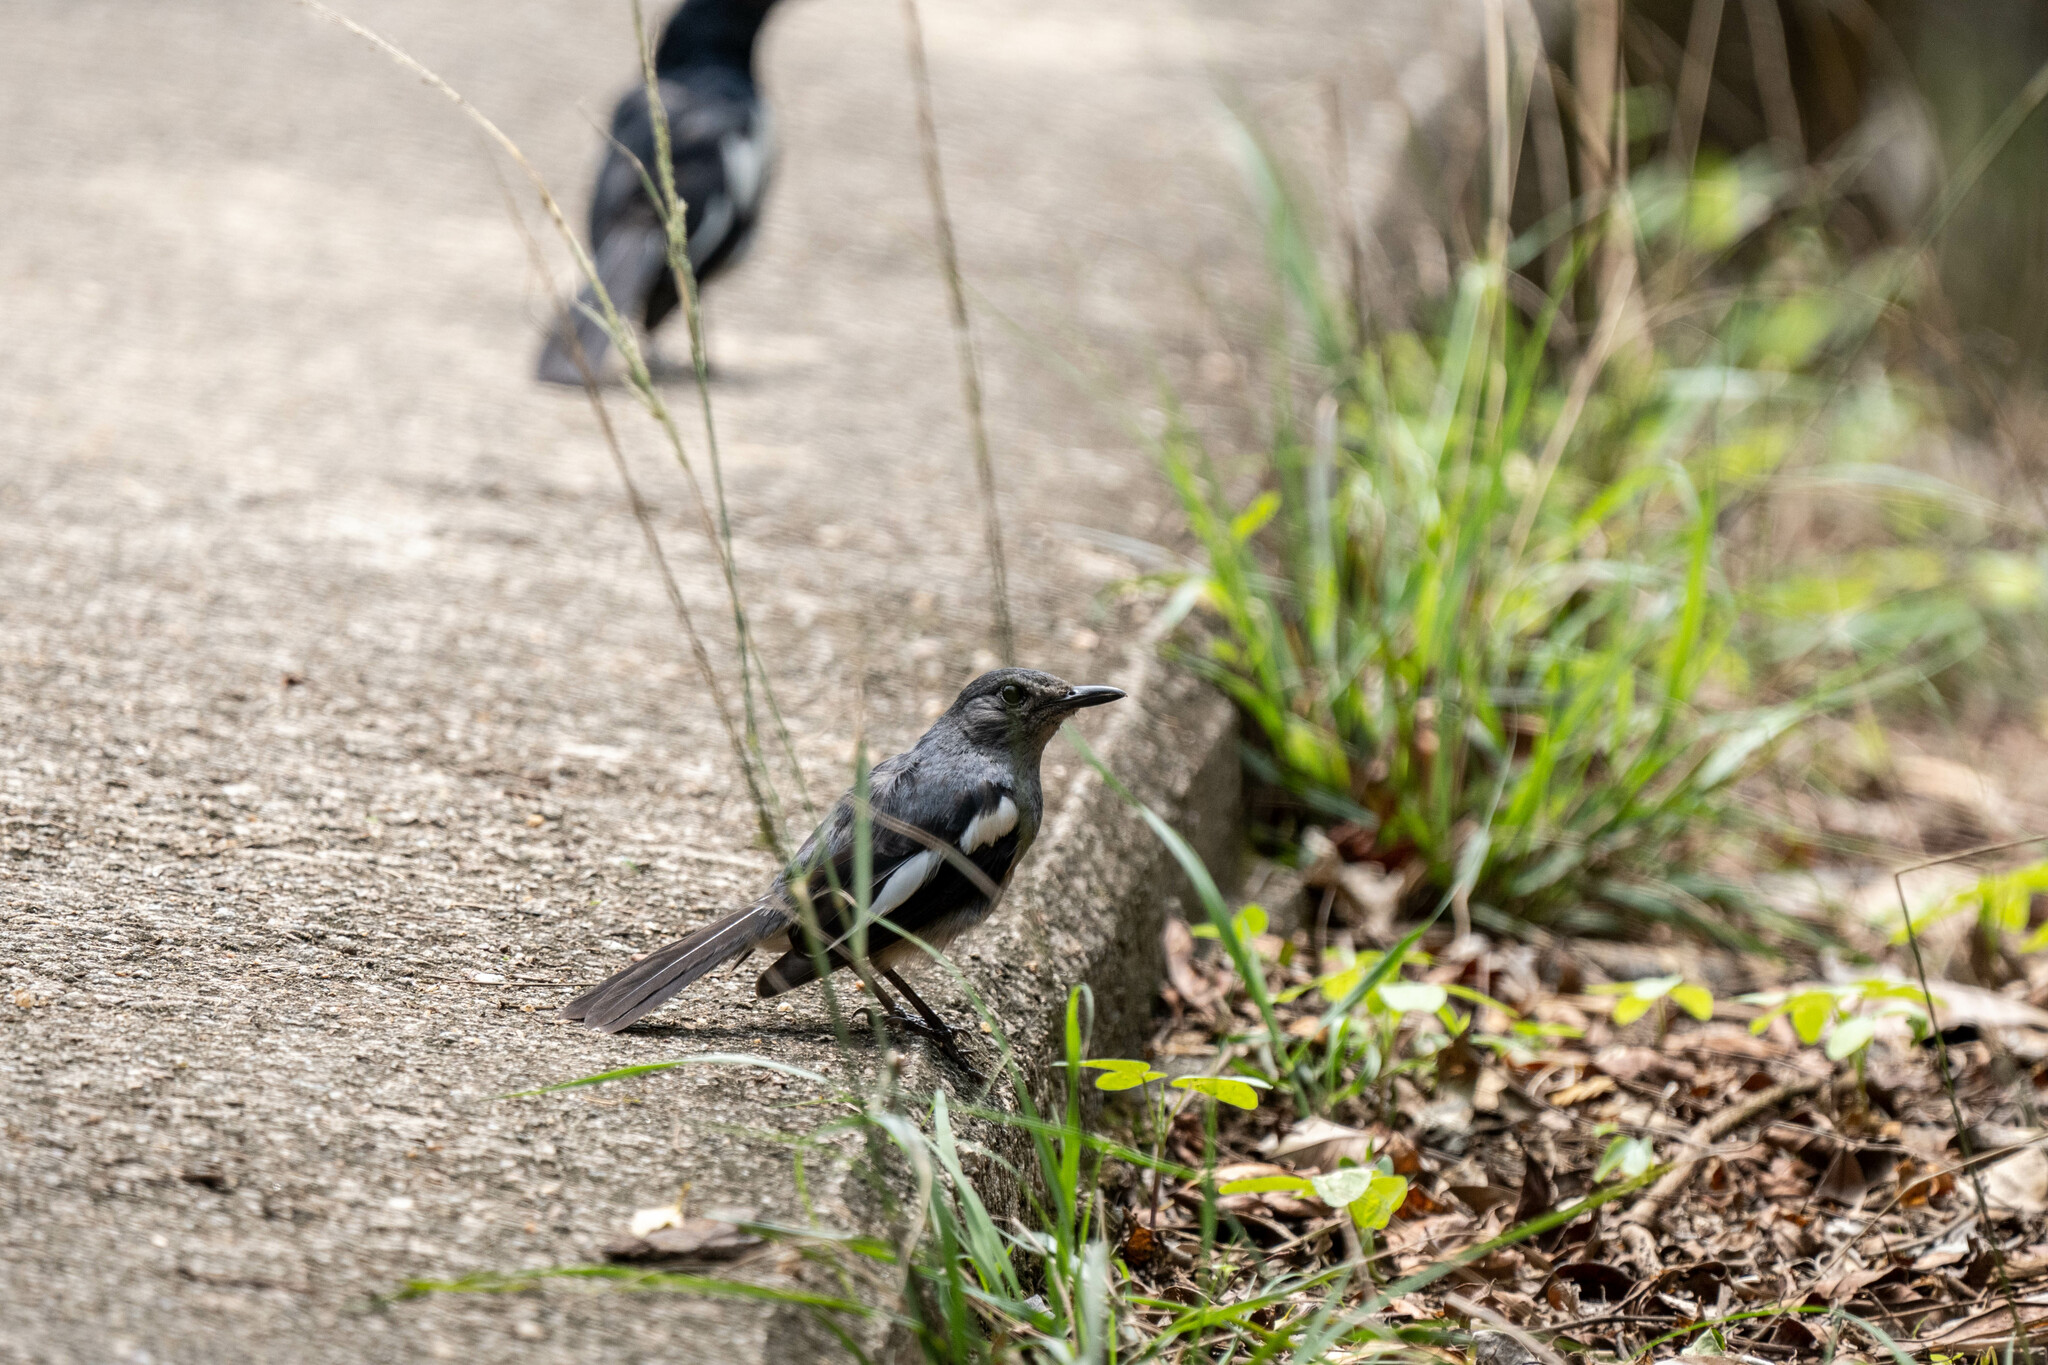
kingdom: Animalia
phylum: Chordata
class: Aves
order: Passeriformes
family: Muscicapidae
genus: Copsychus
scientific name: Copsychus saularis
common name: Oriental magpie-robin
